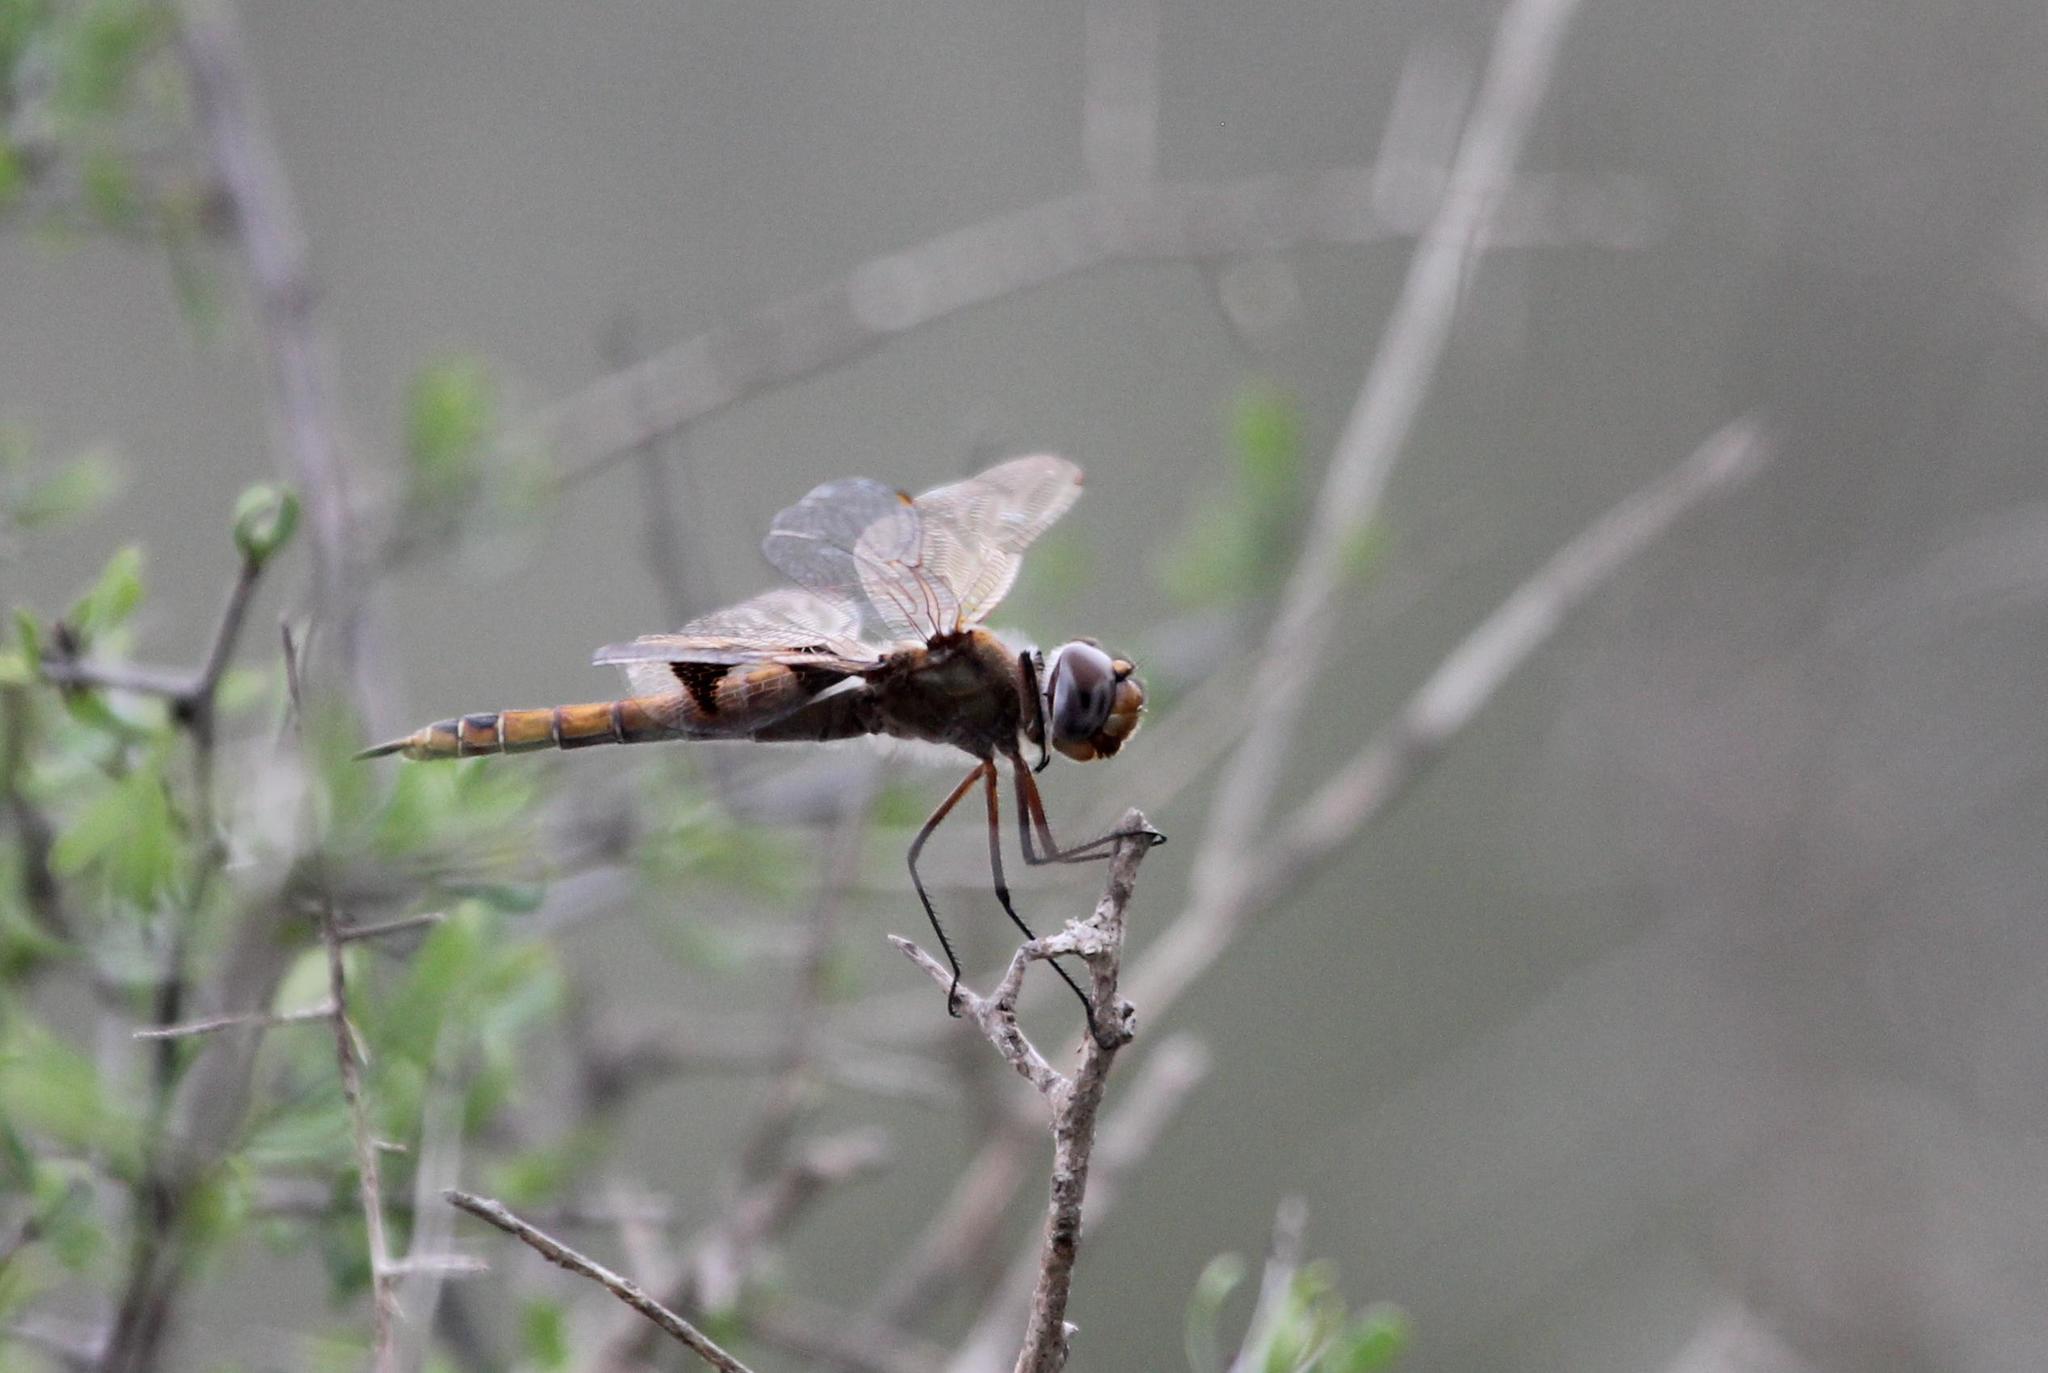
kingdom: Animalia
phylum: Arthropoda
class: Insecta
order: Odonata
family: Libellulidae
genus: Tramea
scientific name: Tramea onusta
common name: Red saddlebags
